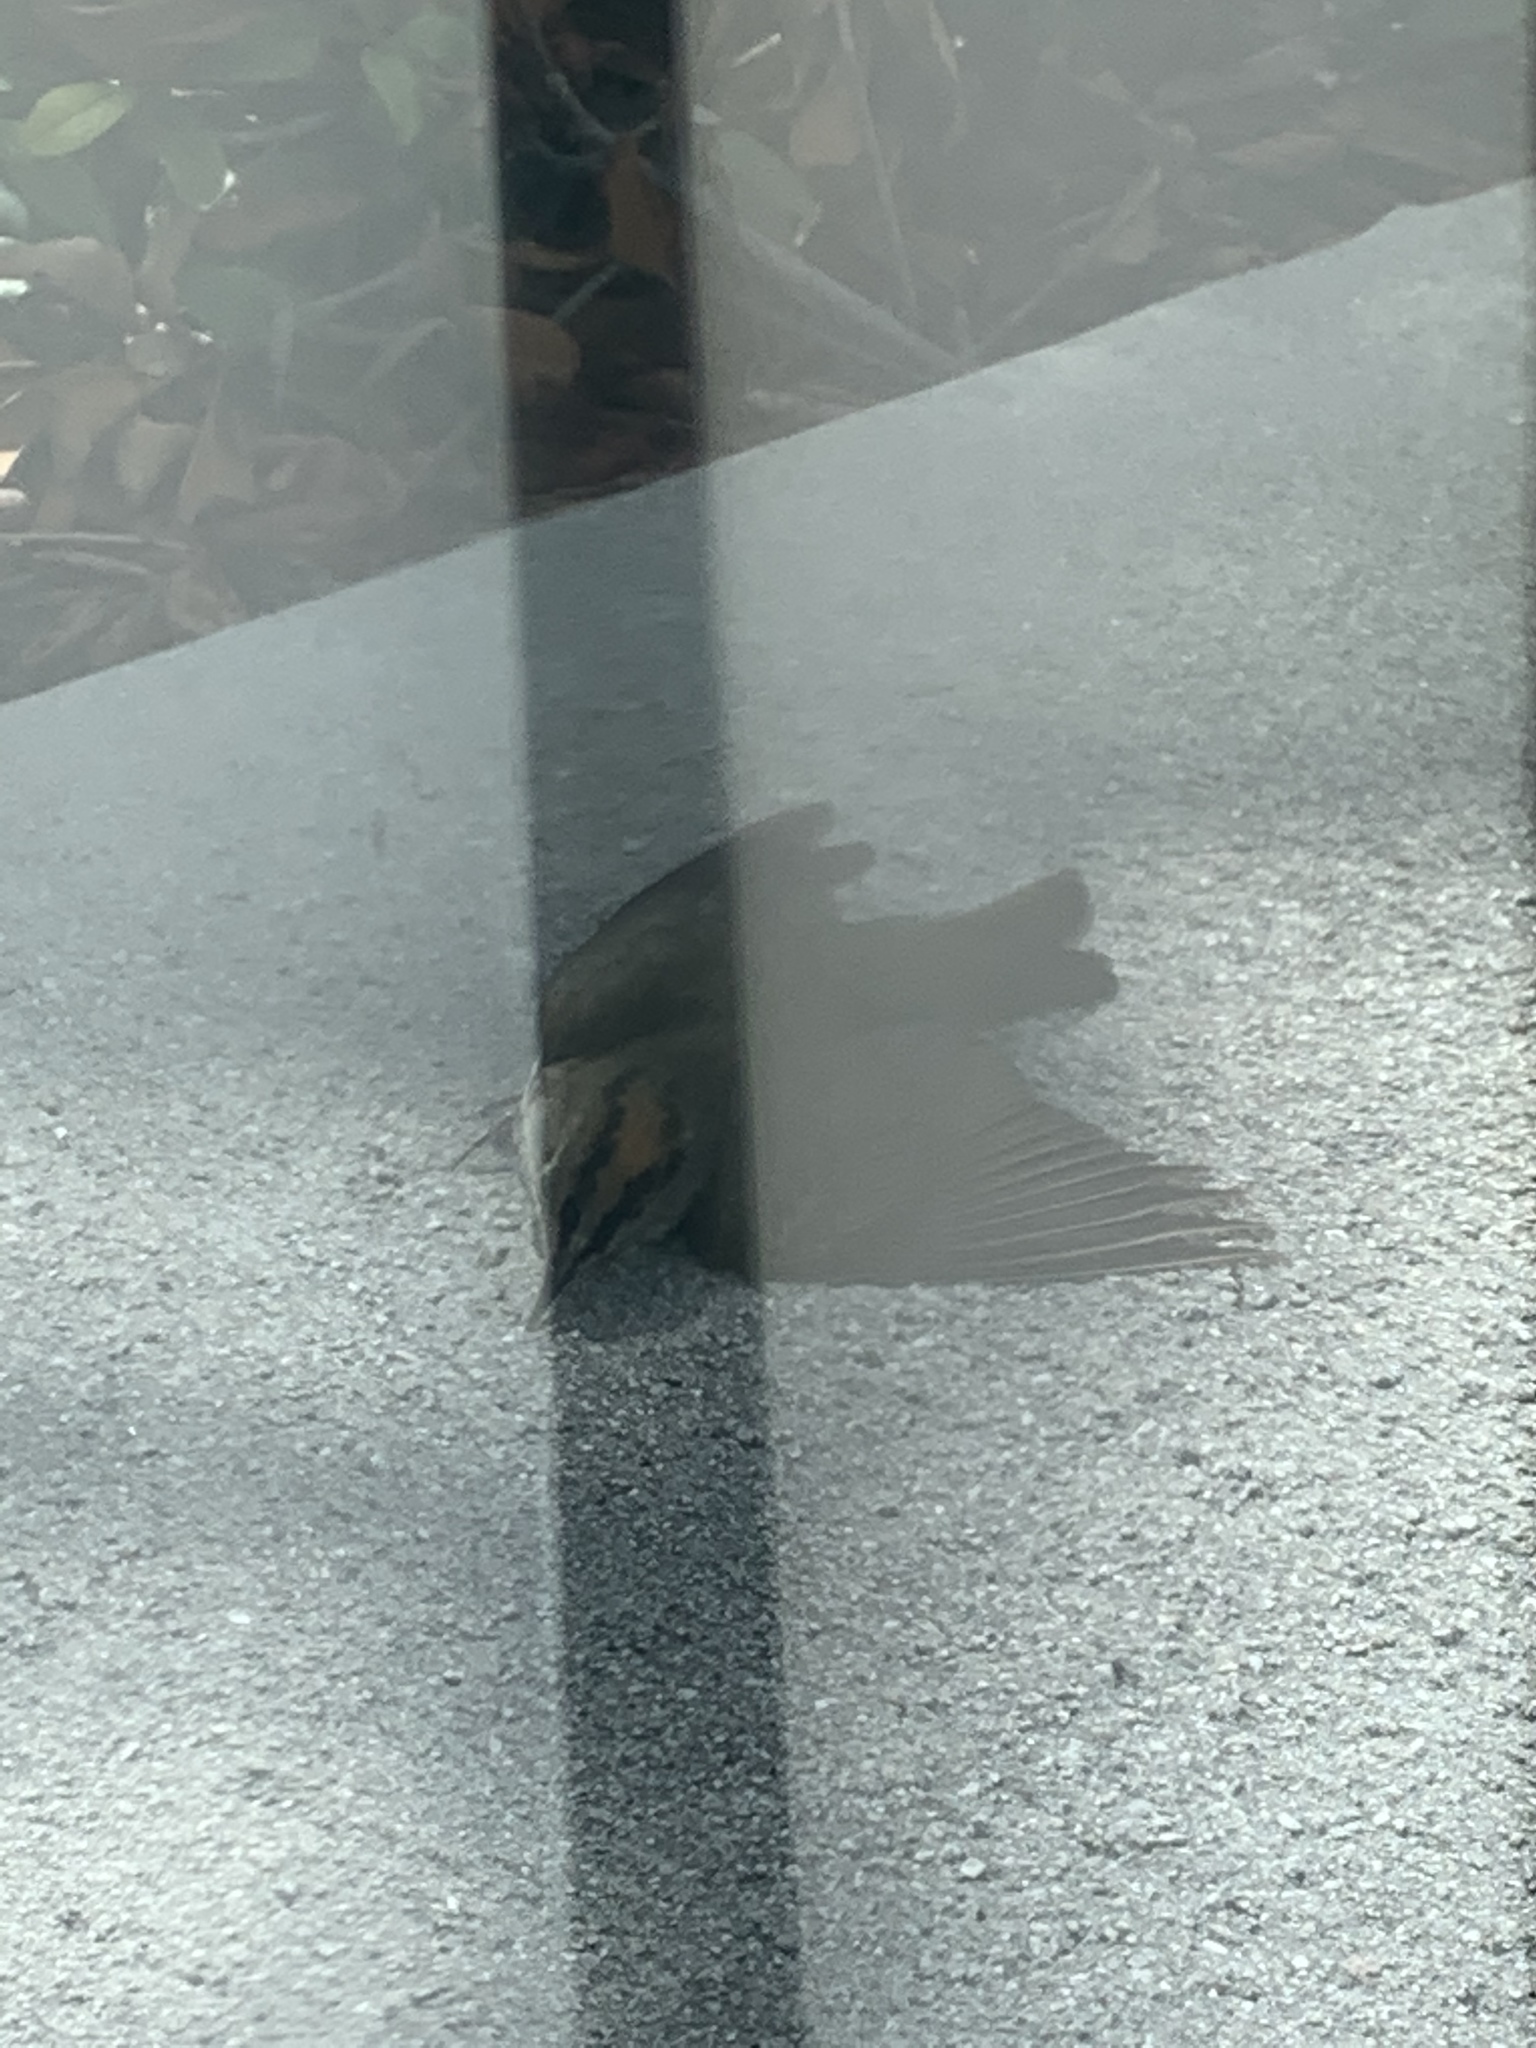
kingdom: Animalia
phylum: Chordata
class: Aves
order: Passeriformes
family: Parulidae
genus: Seiurus
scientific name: Seiurus aurocapilla
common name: Ovenbird
